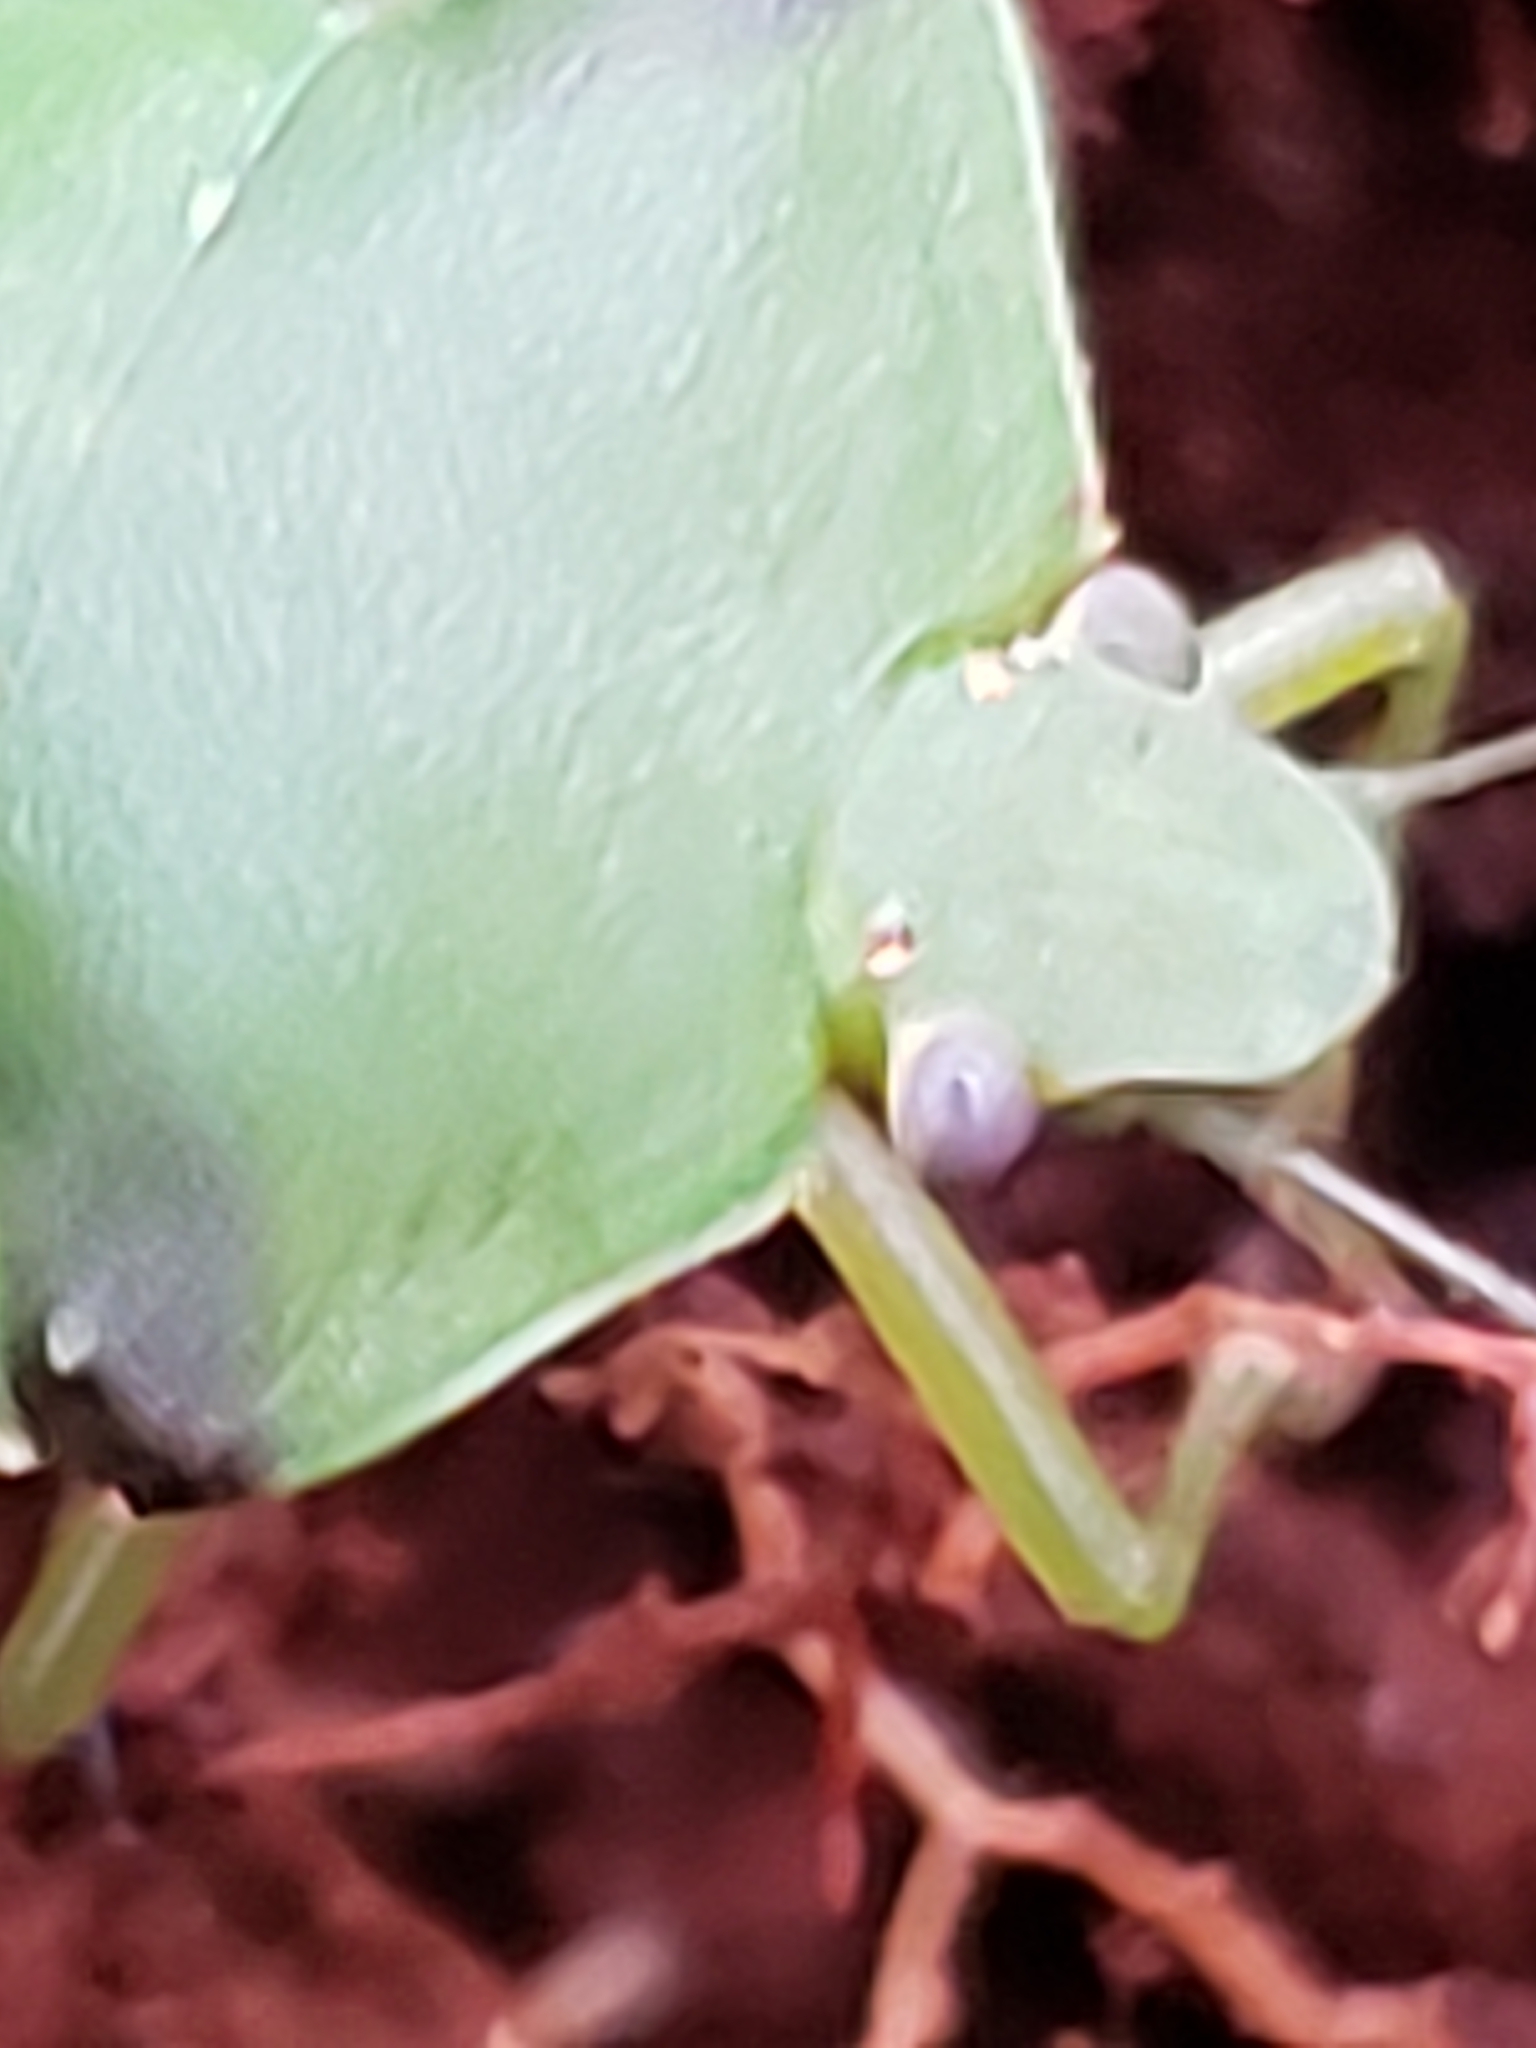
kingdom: Animalia
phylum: Arthropoda
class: Insecta
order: Hemiptera
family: Pentatomidae
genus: Chinavia
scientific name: Chinavia hilaris
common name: Green stink bug
